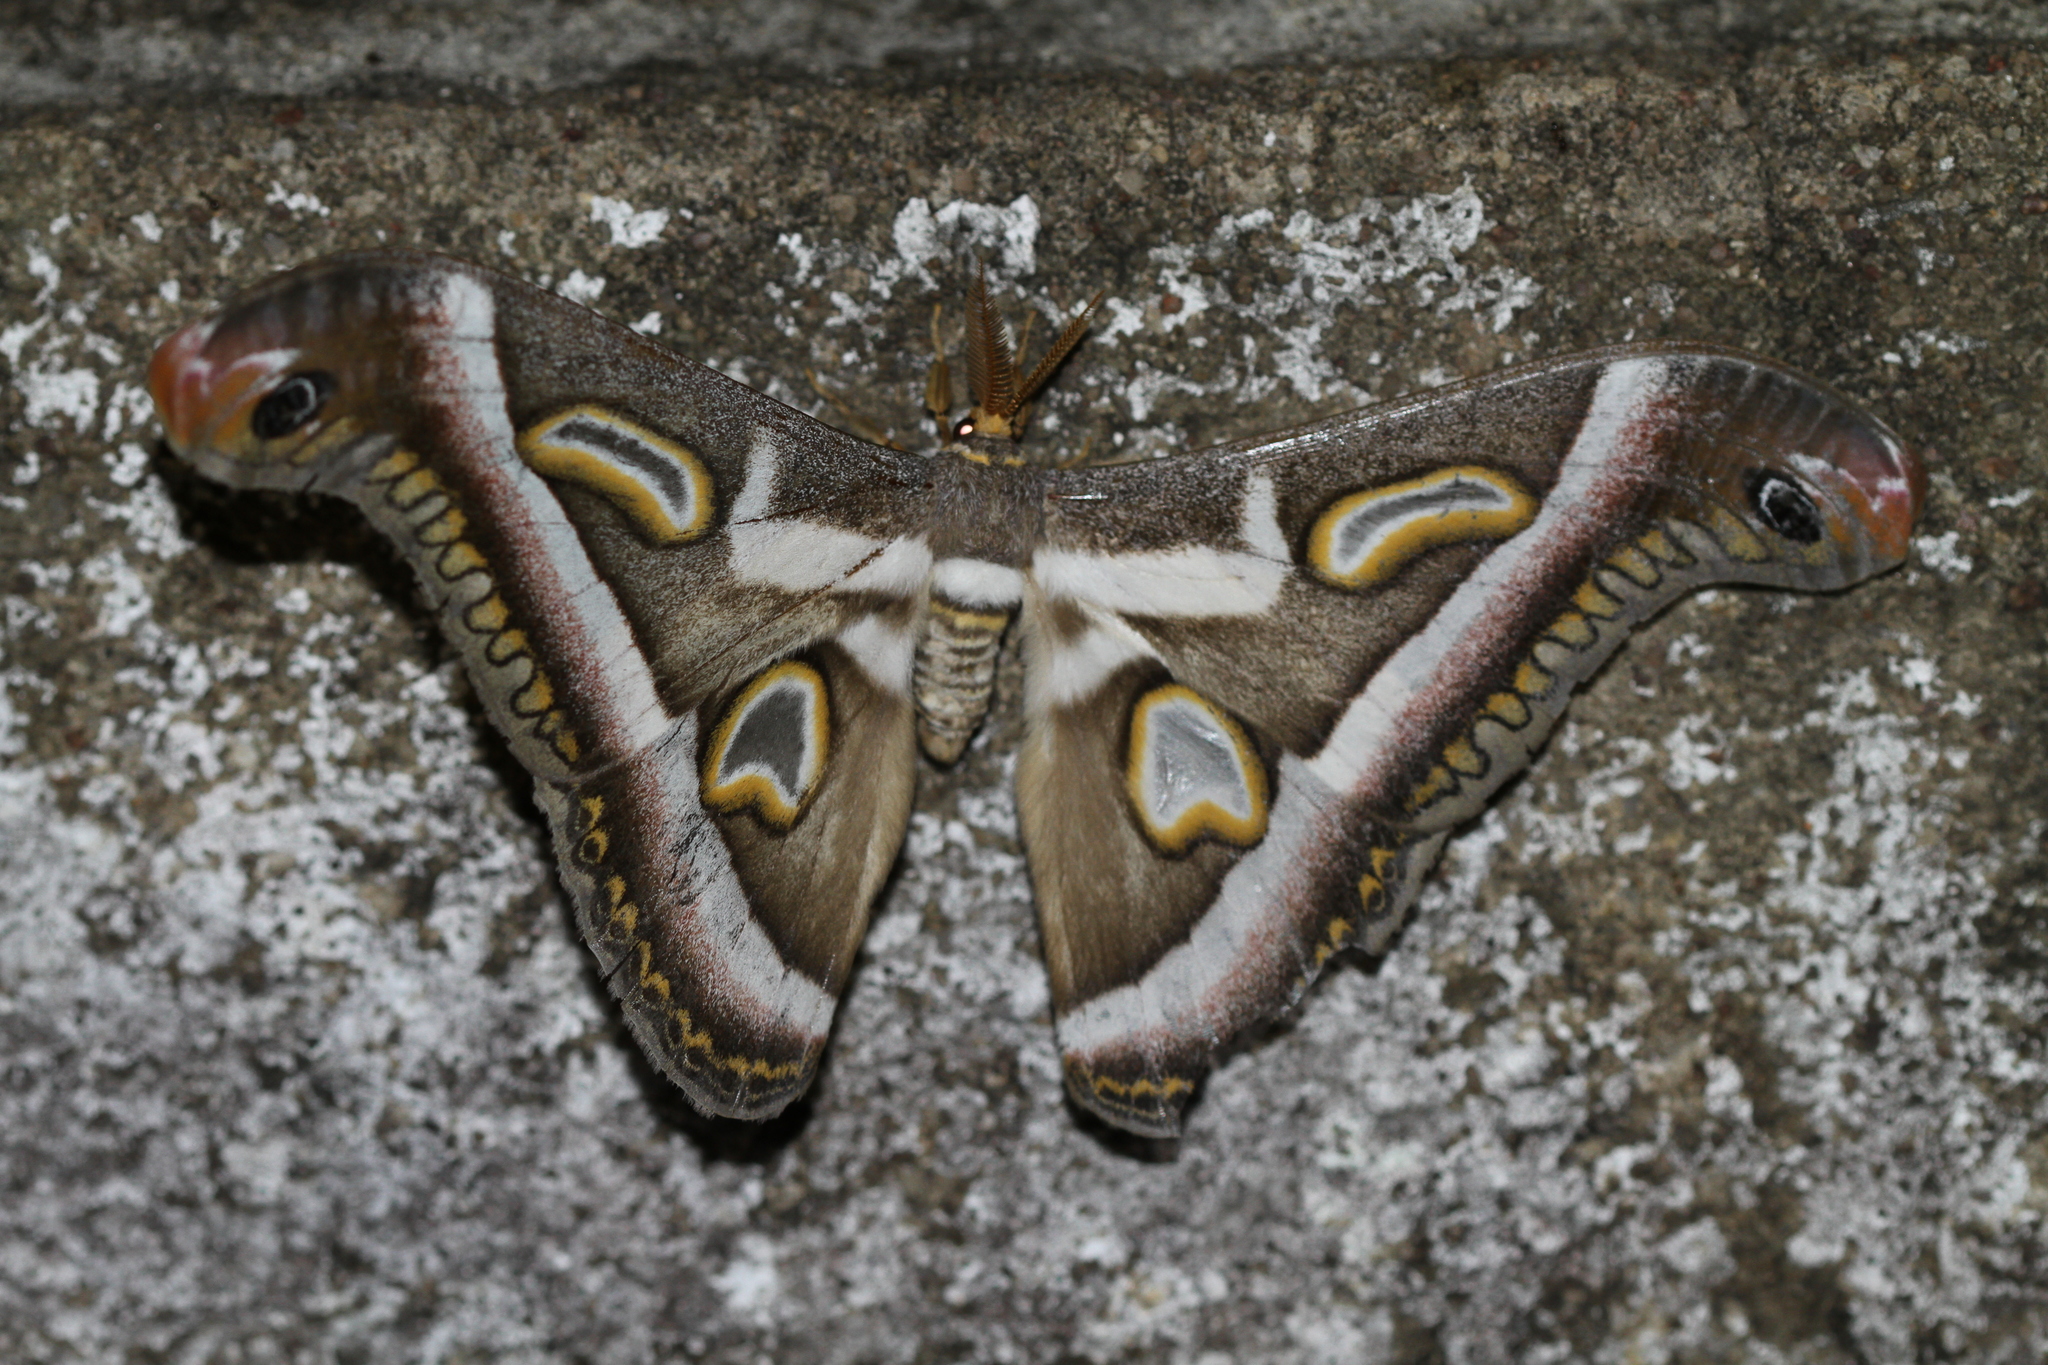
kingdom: Animalia
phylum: Arthropoda
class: Insecta
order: Lepidoptera
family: Saturniidae
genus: Epiphora
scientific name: Epiphora rectifascia
